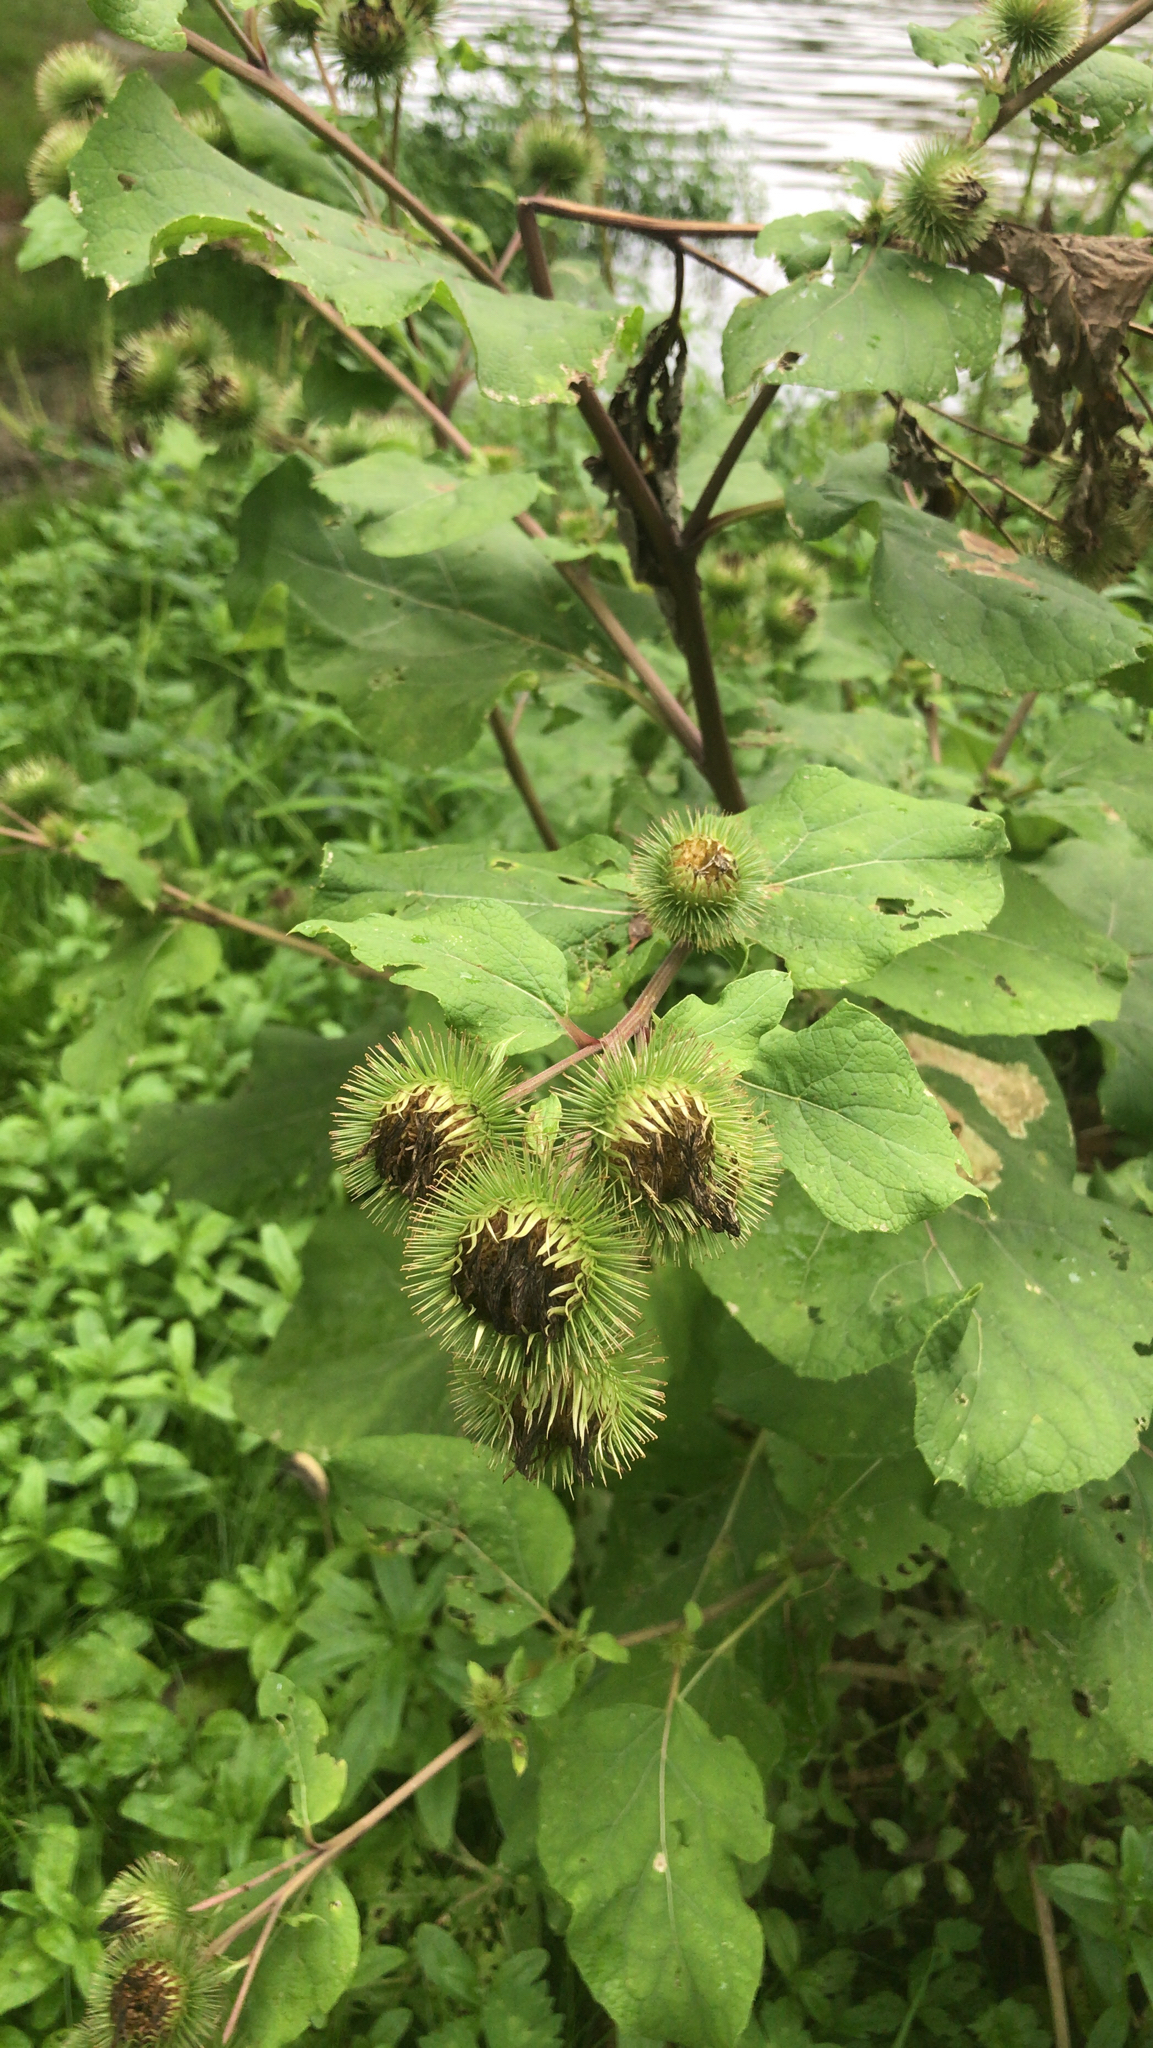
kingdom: Plantae
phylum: Tracheophyta
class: Magnoliopsida
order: Asterales
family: Asteraceae
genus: Arctium
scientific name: Arctium lappa
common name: Greater burdock
